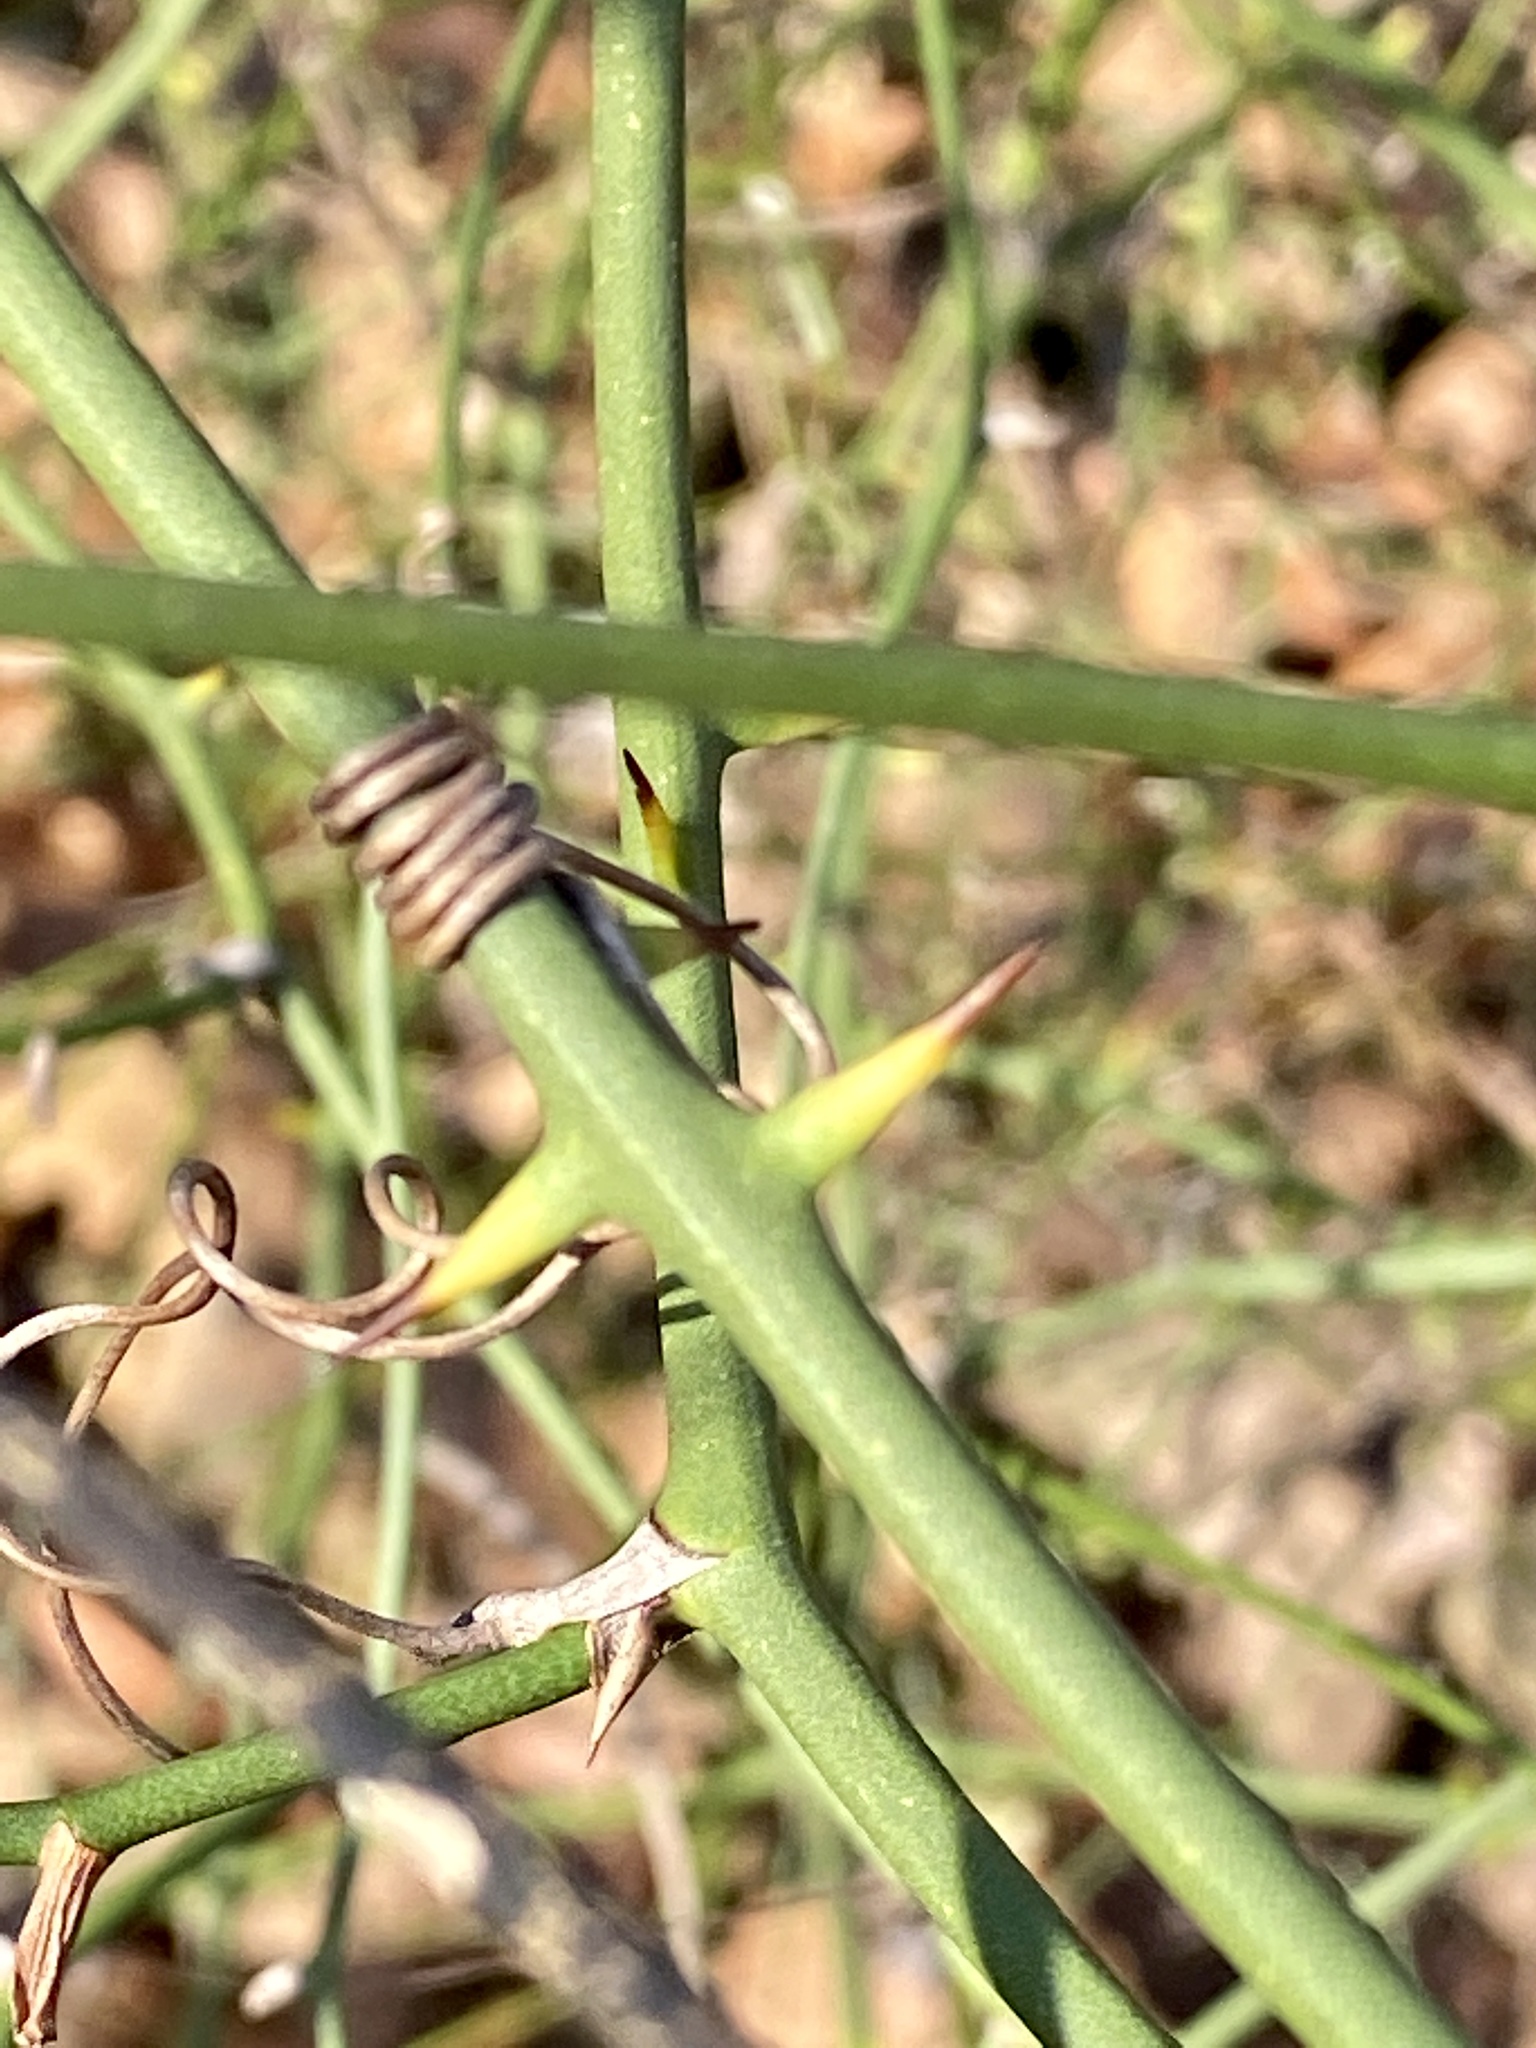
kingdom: Plantae
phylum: Tracheophyta
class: Liliopsida
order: Liliales
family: Smilacaceae
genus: Smilax
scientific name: Smilax rotundifolia
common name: Bullbriar
